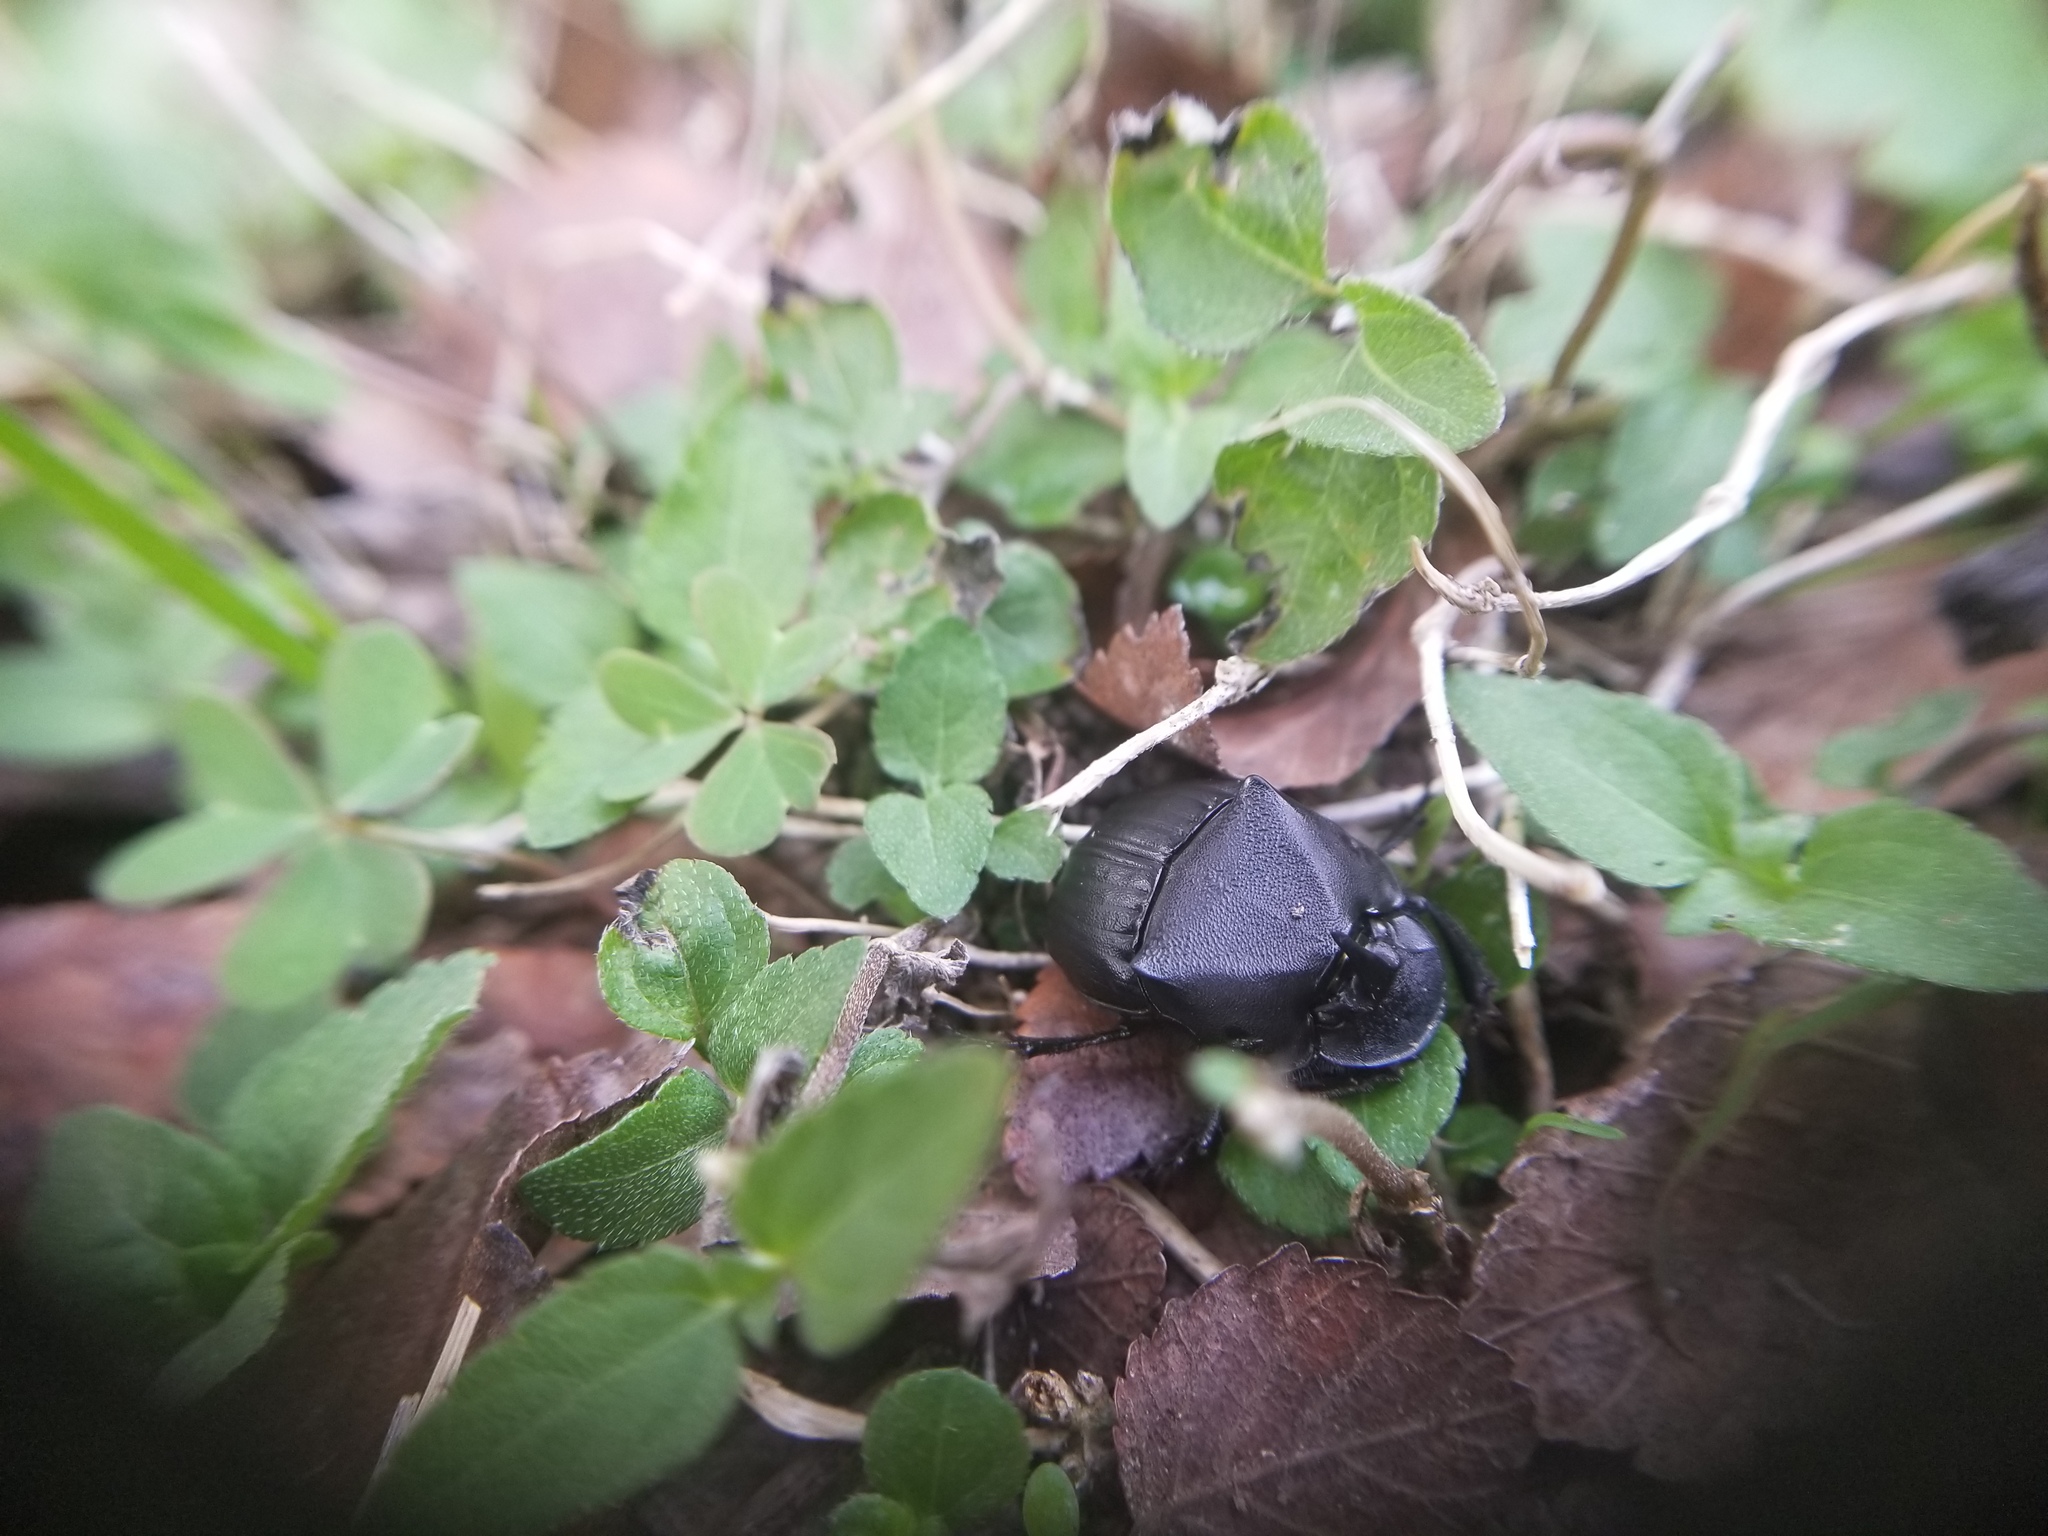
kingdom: Animalia
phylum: Arthropoda
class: Insecta
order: Coleoptera
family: Scarabaeidae
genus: Phanaeus
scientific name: Phanaeus texensis
